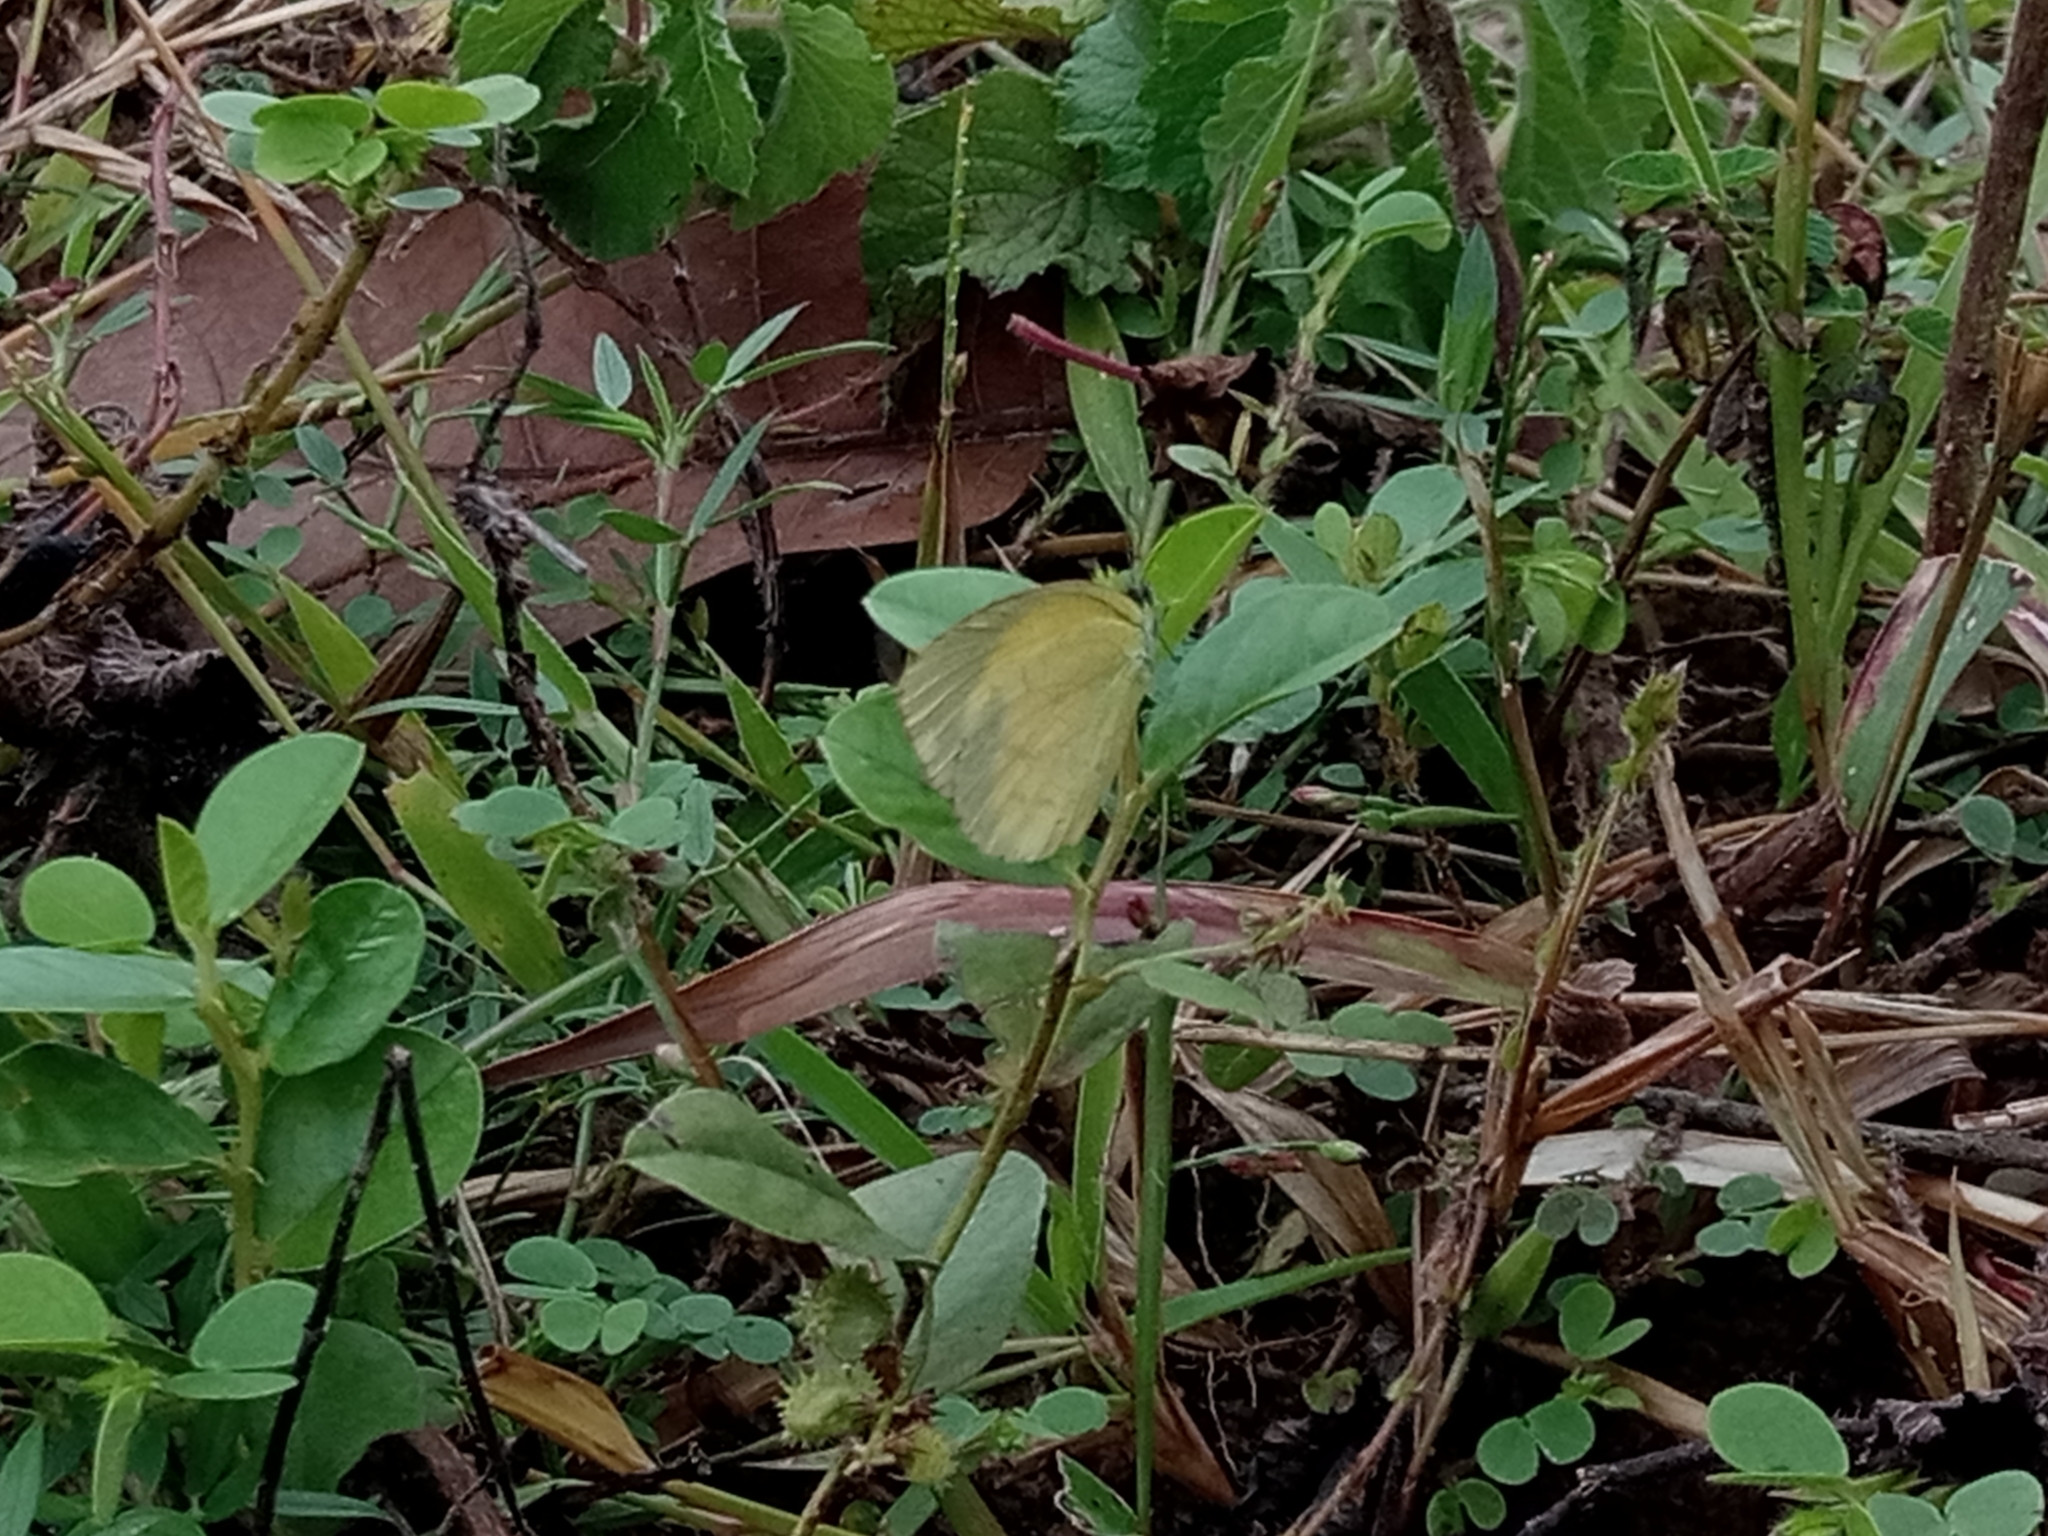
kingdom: Animalia
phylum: Arthropoda
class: Insecta
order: Lepidoptera
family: Pieridae
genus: Eurema
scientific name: Eurema brigitta
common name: Small grass yellow
